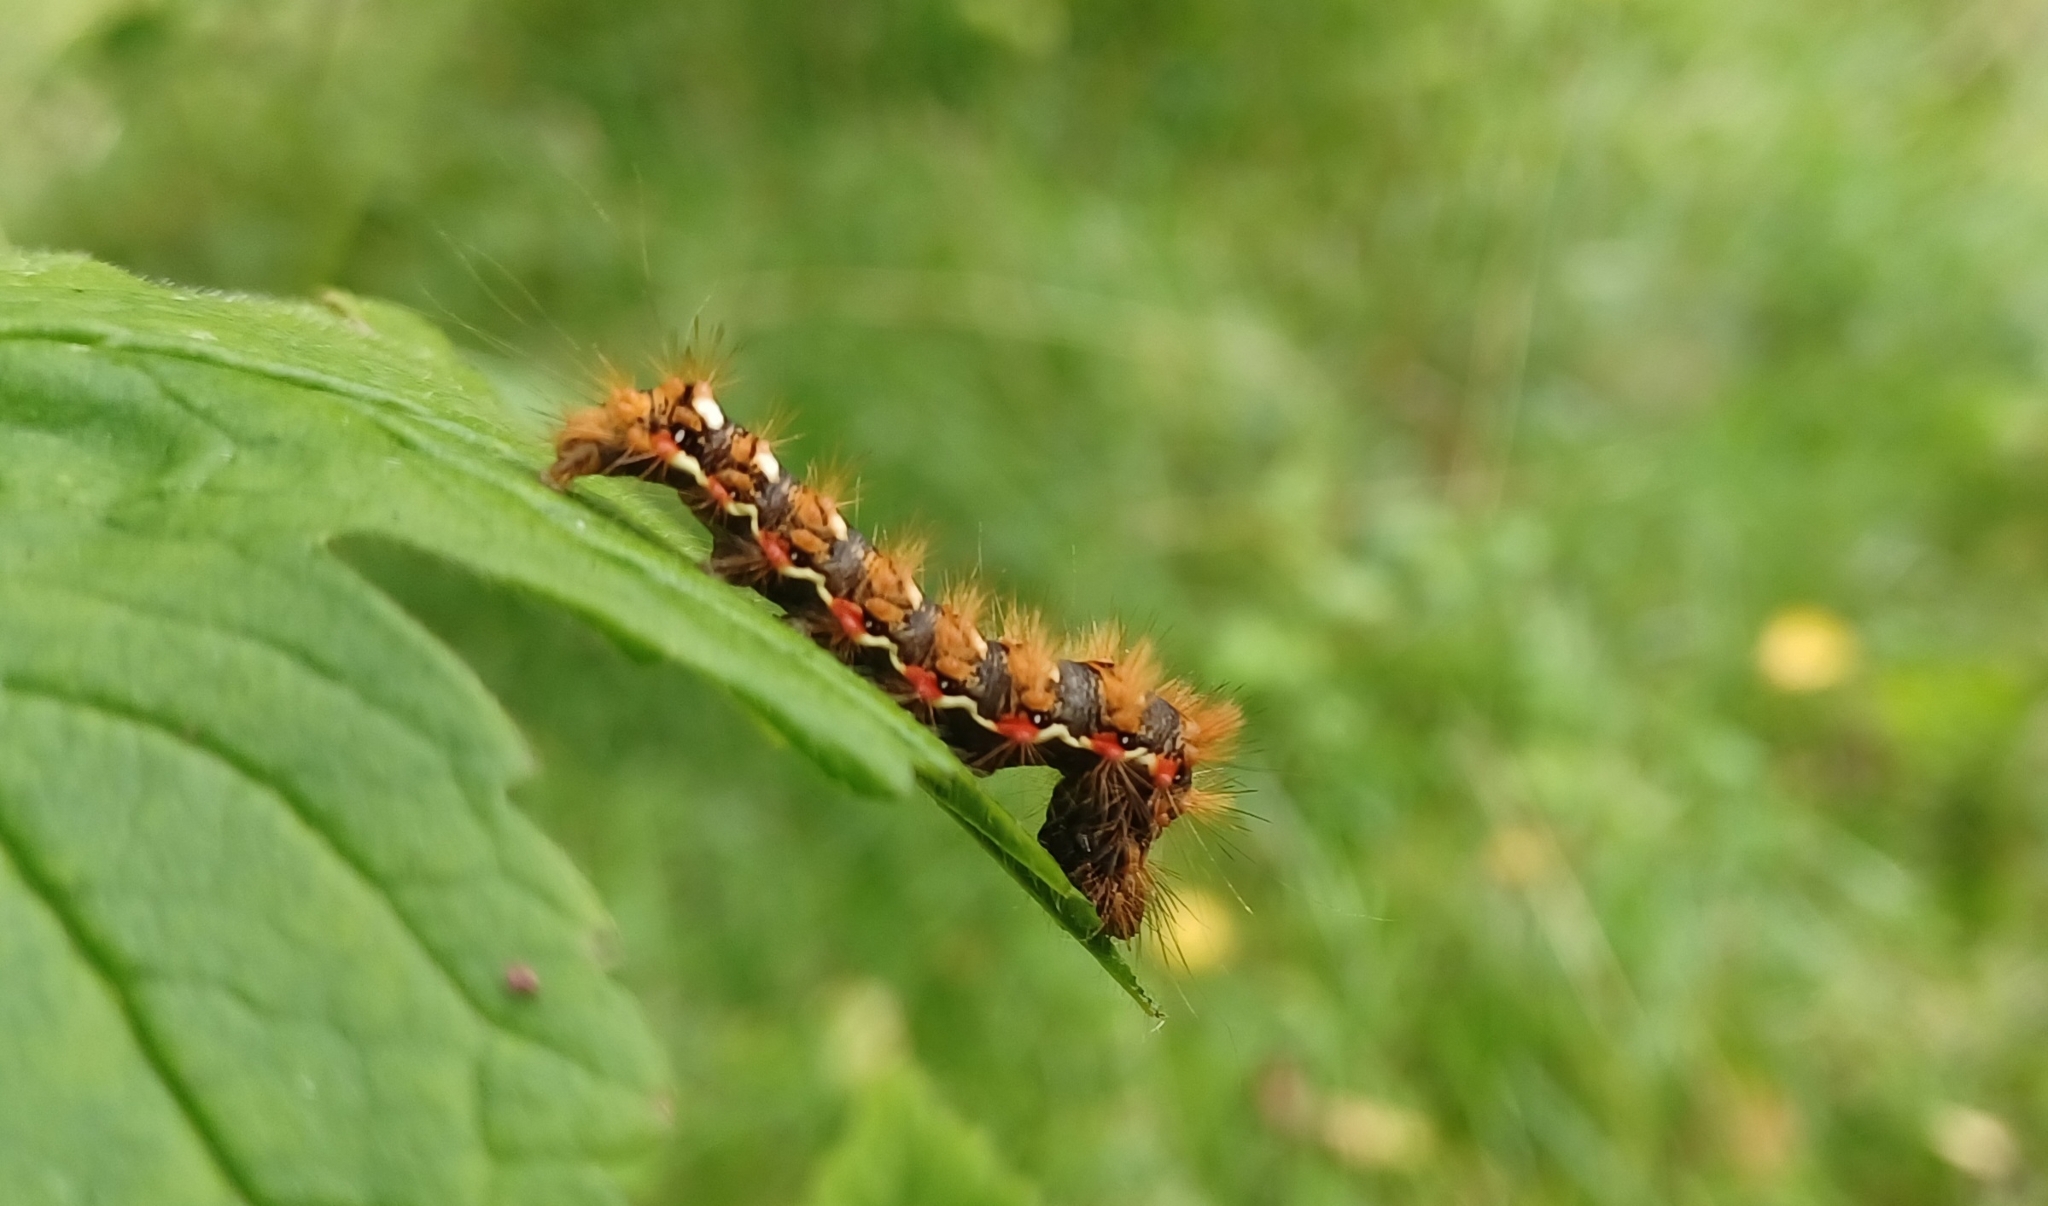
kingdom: Animalia
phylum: Arthropoda
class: Insecta
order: Lepidoptera
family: Noctuidae
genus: Acronicta
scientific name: Acronicta rumicis
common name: Knot grass
